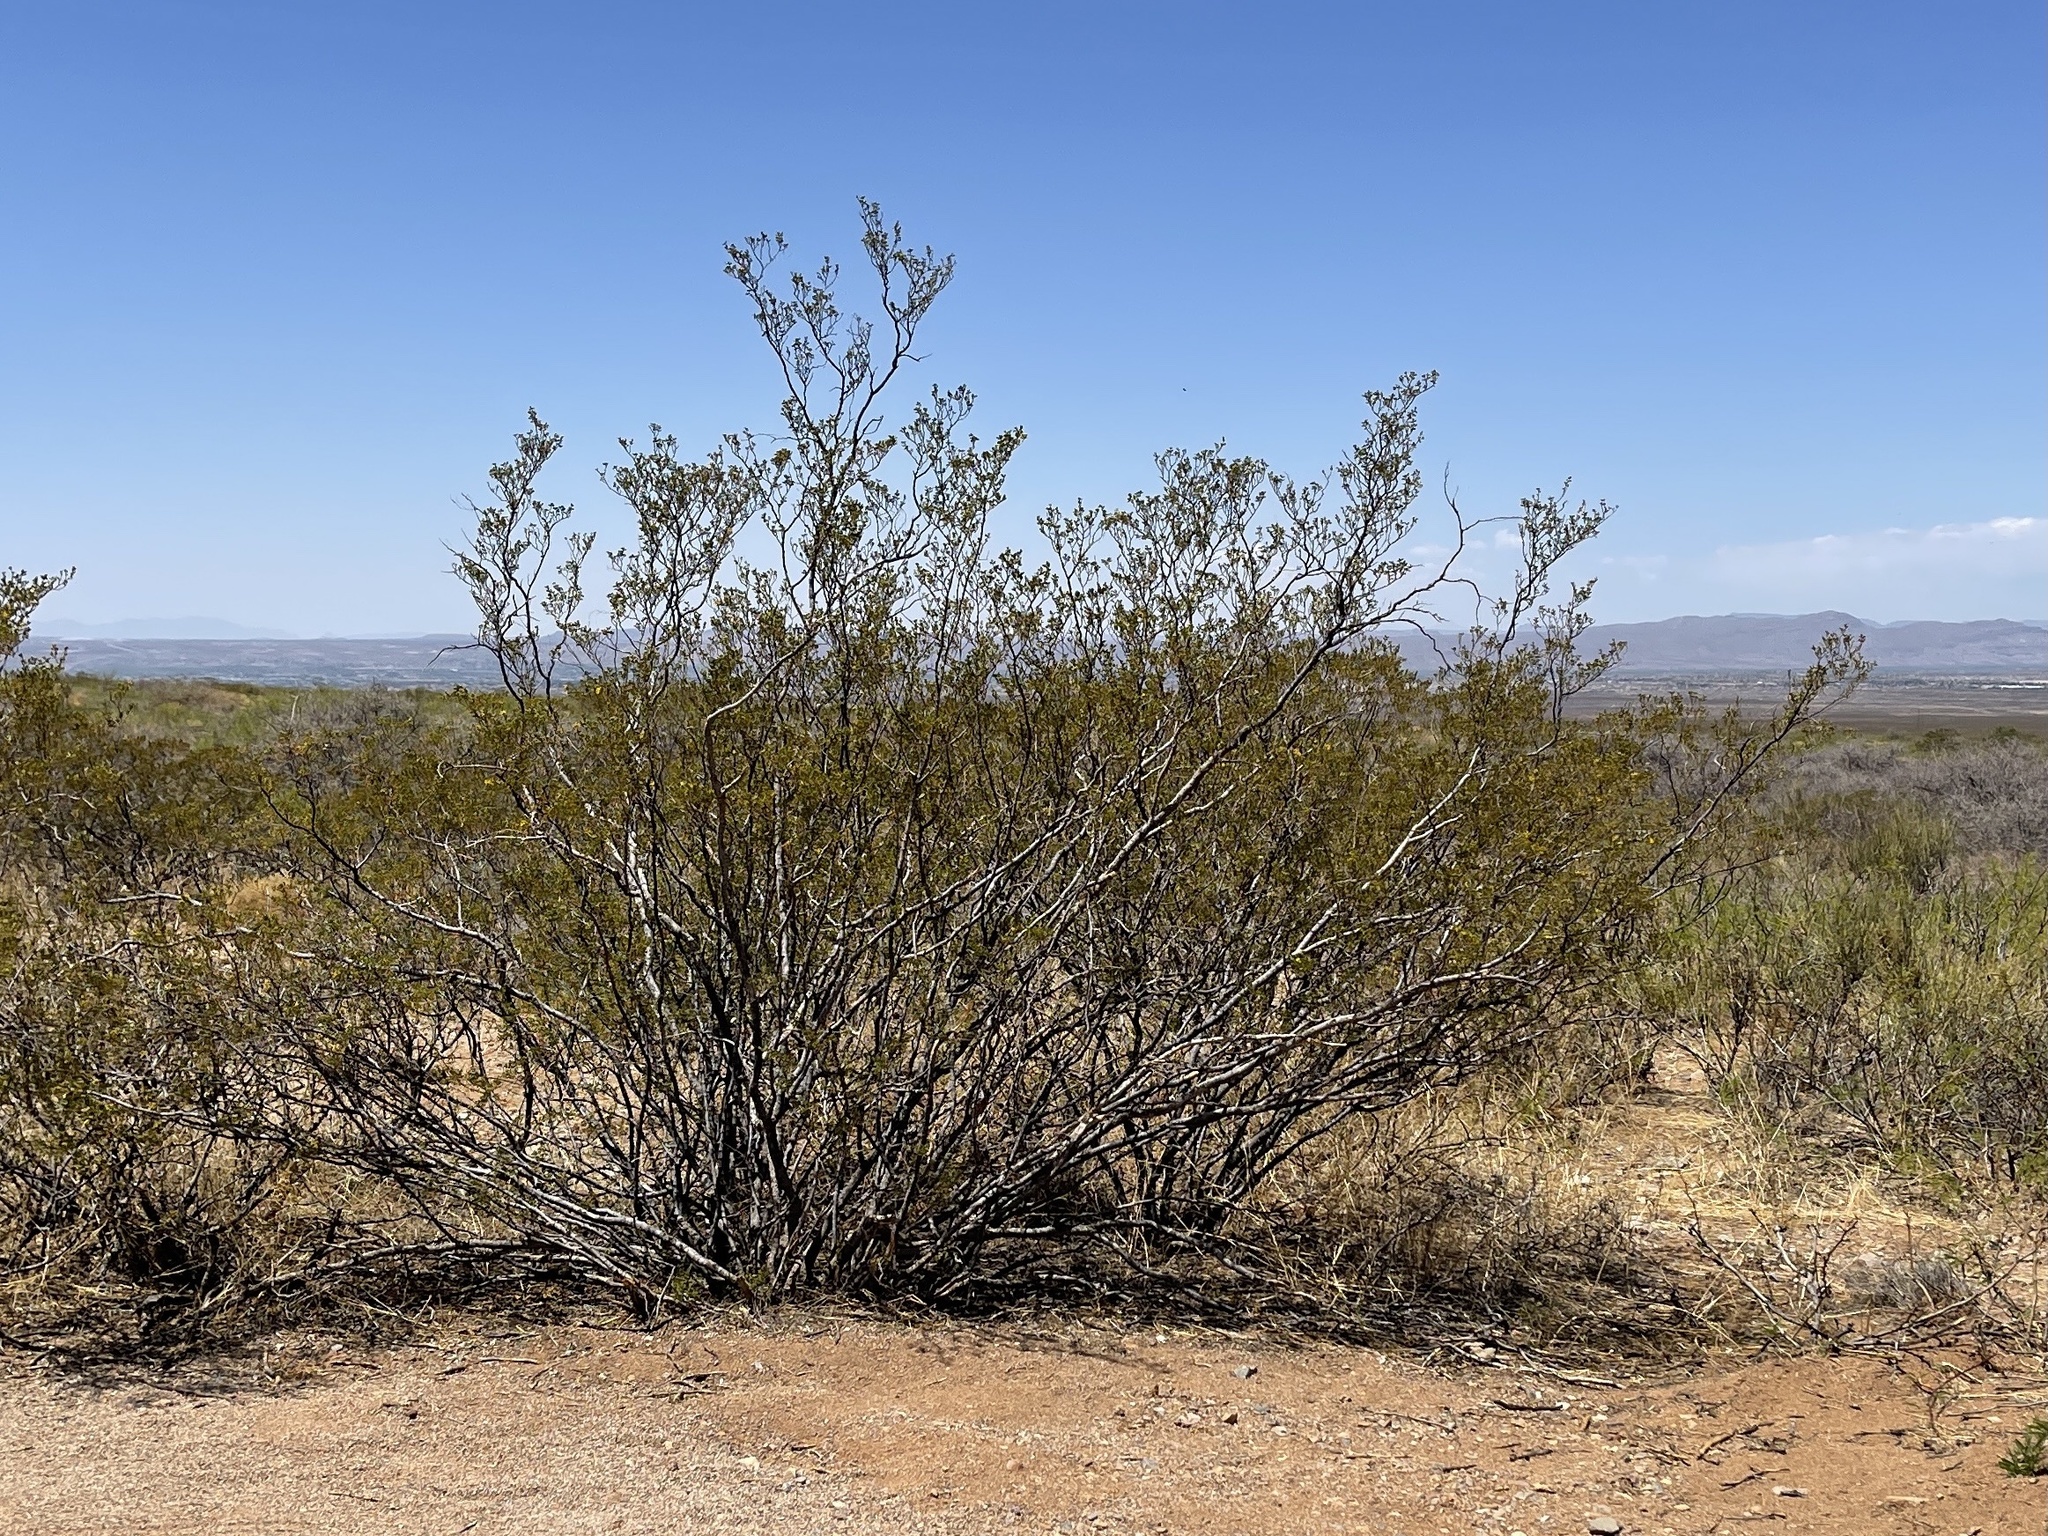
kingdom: Plantae
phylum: Tracheophyta
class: Magnoliopsida
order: Zygophyllales
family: Zygophyllaceae
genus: Larrea
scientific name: Larrea tridentata
